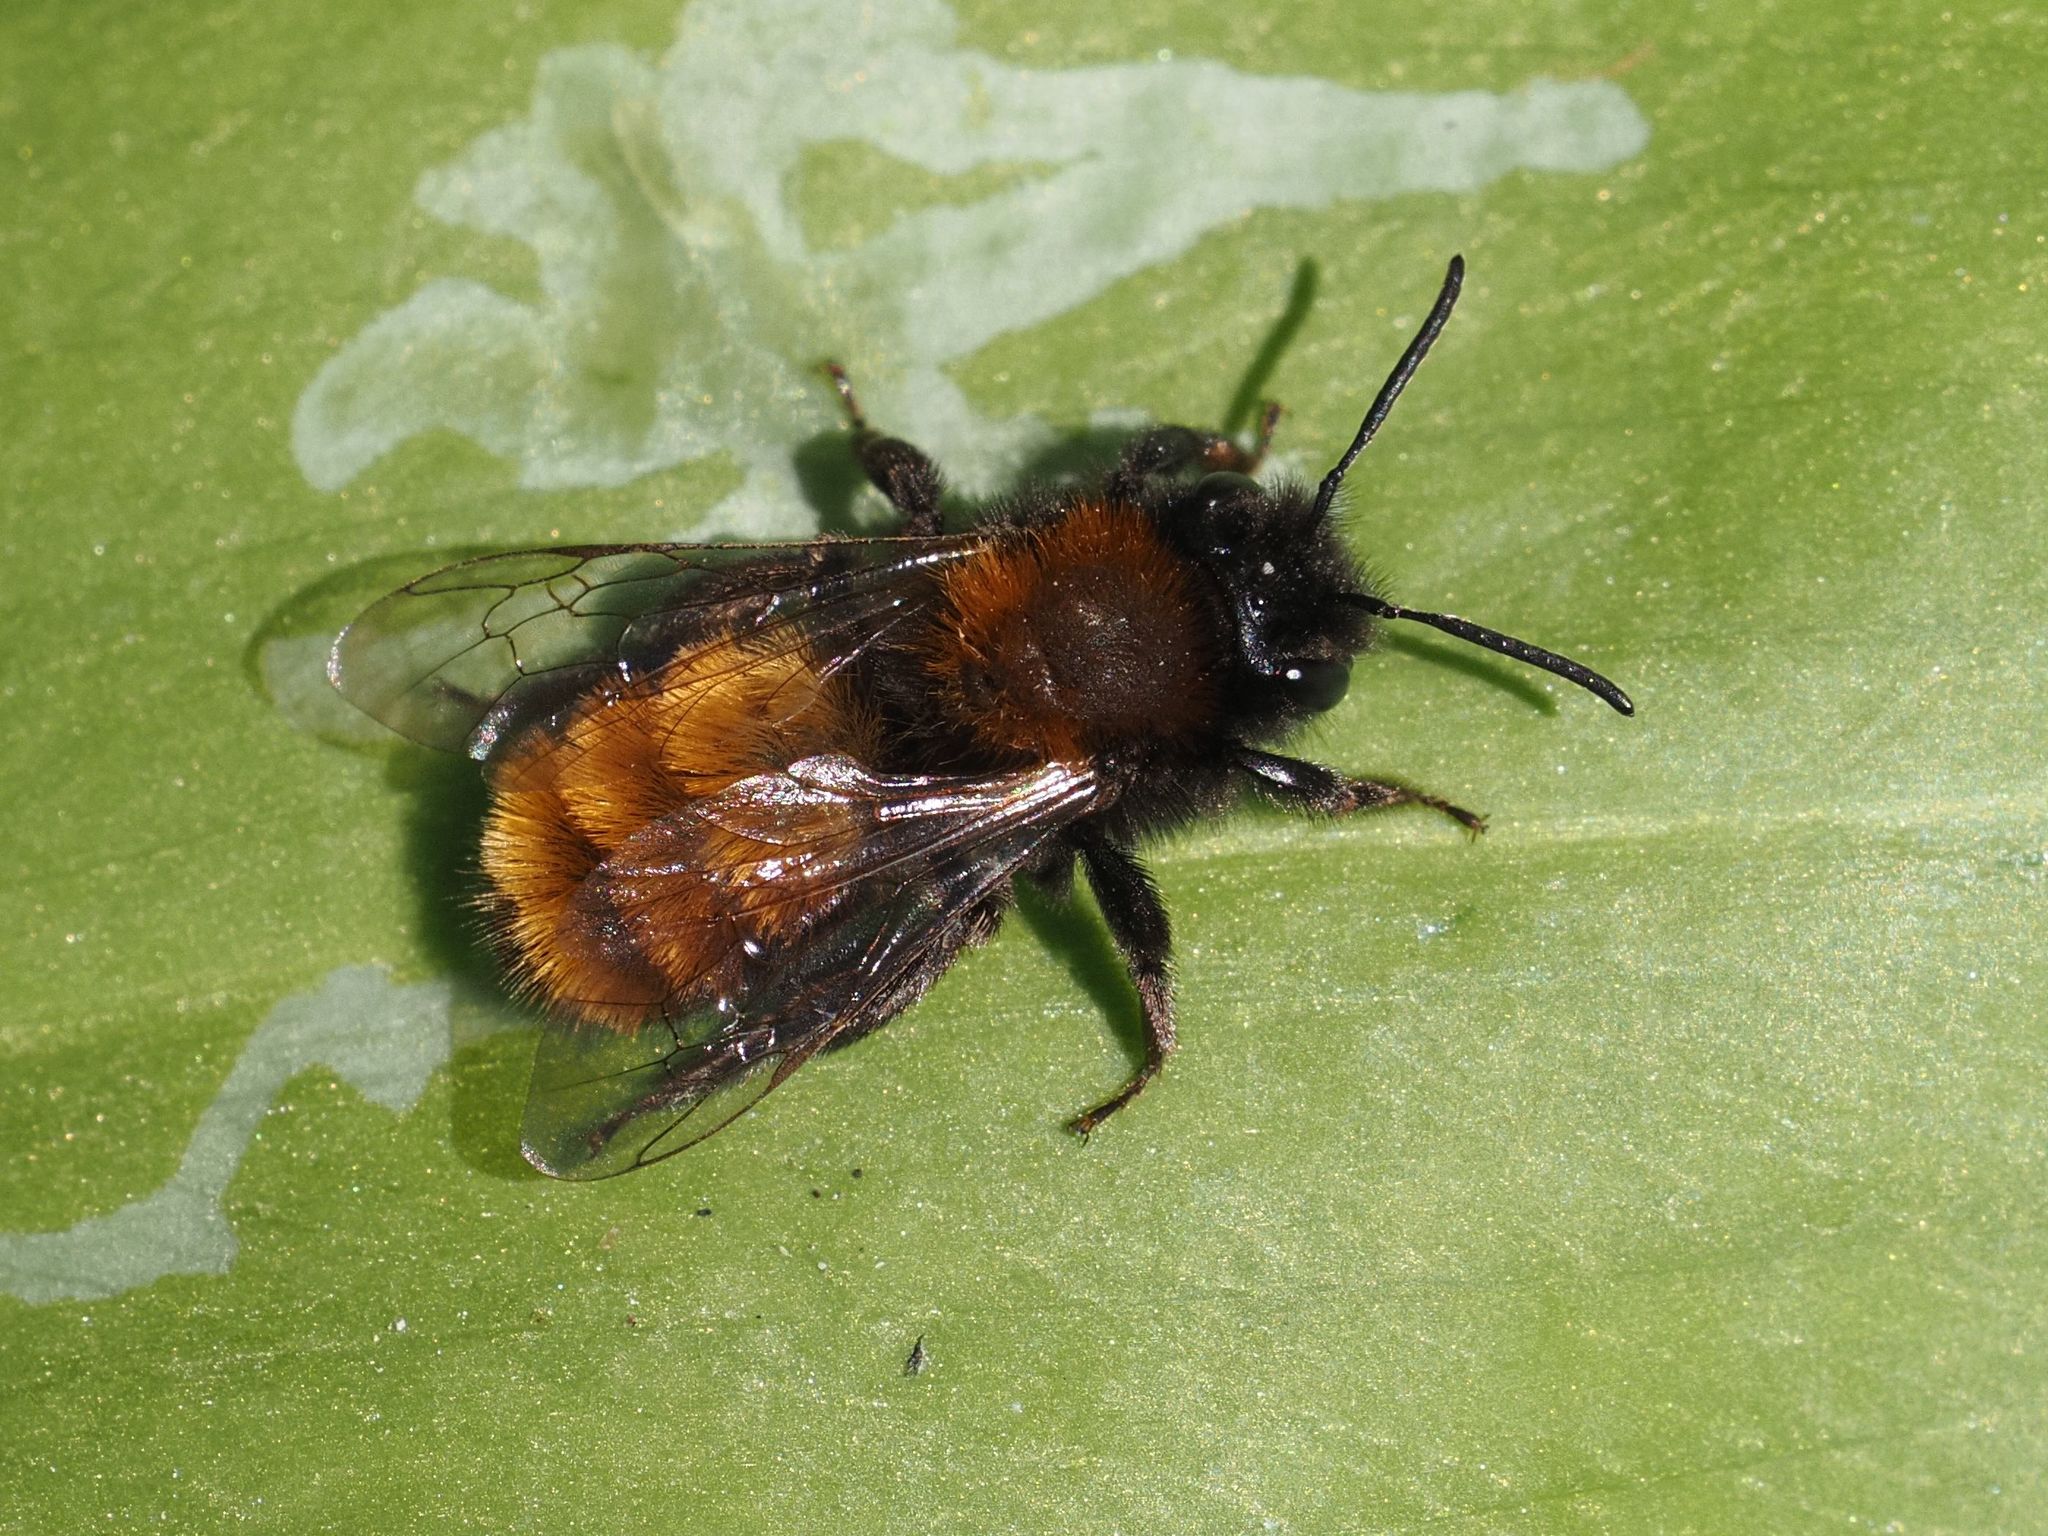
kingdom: Animalia
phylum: Arthropoda
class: Insecta
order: Hymenoptera
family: Andrenidae
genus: Andrena
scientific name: Andrena fulva
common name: Tawny mining bee
